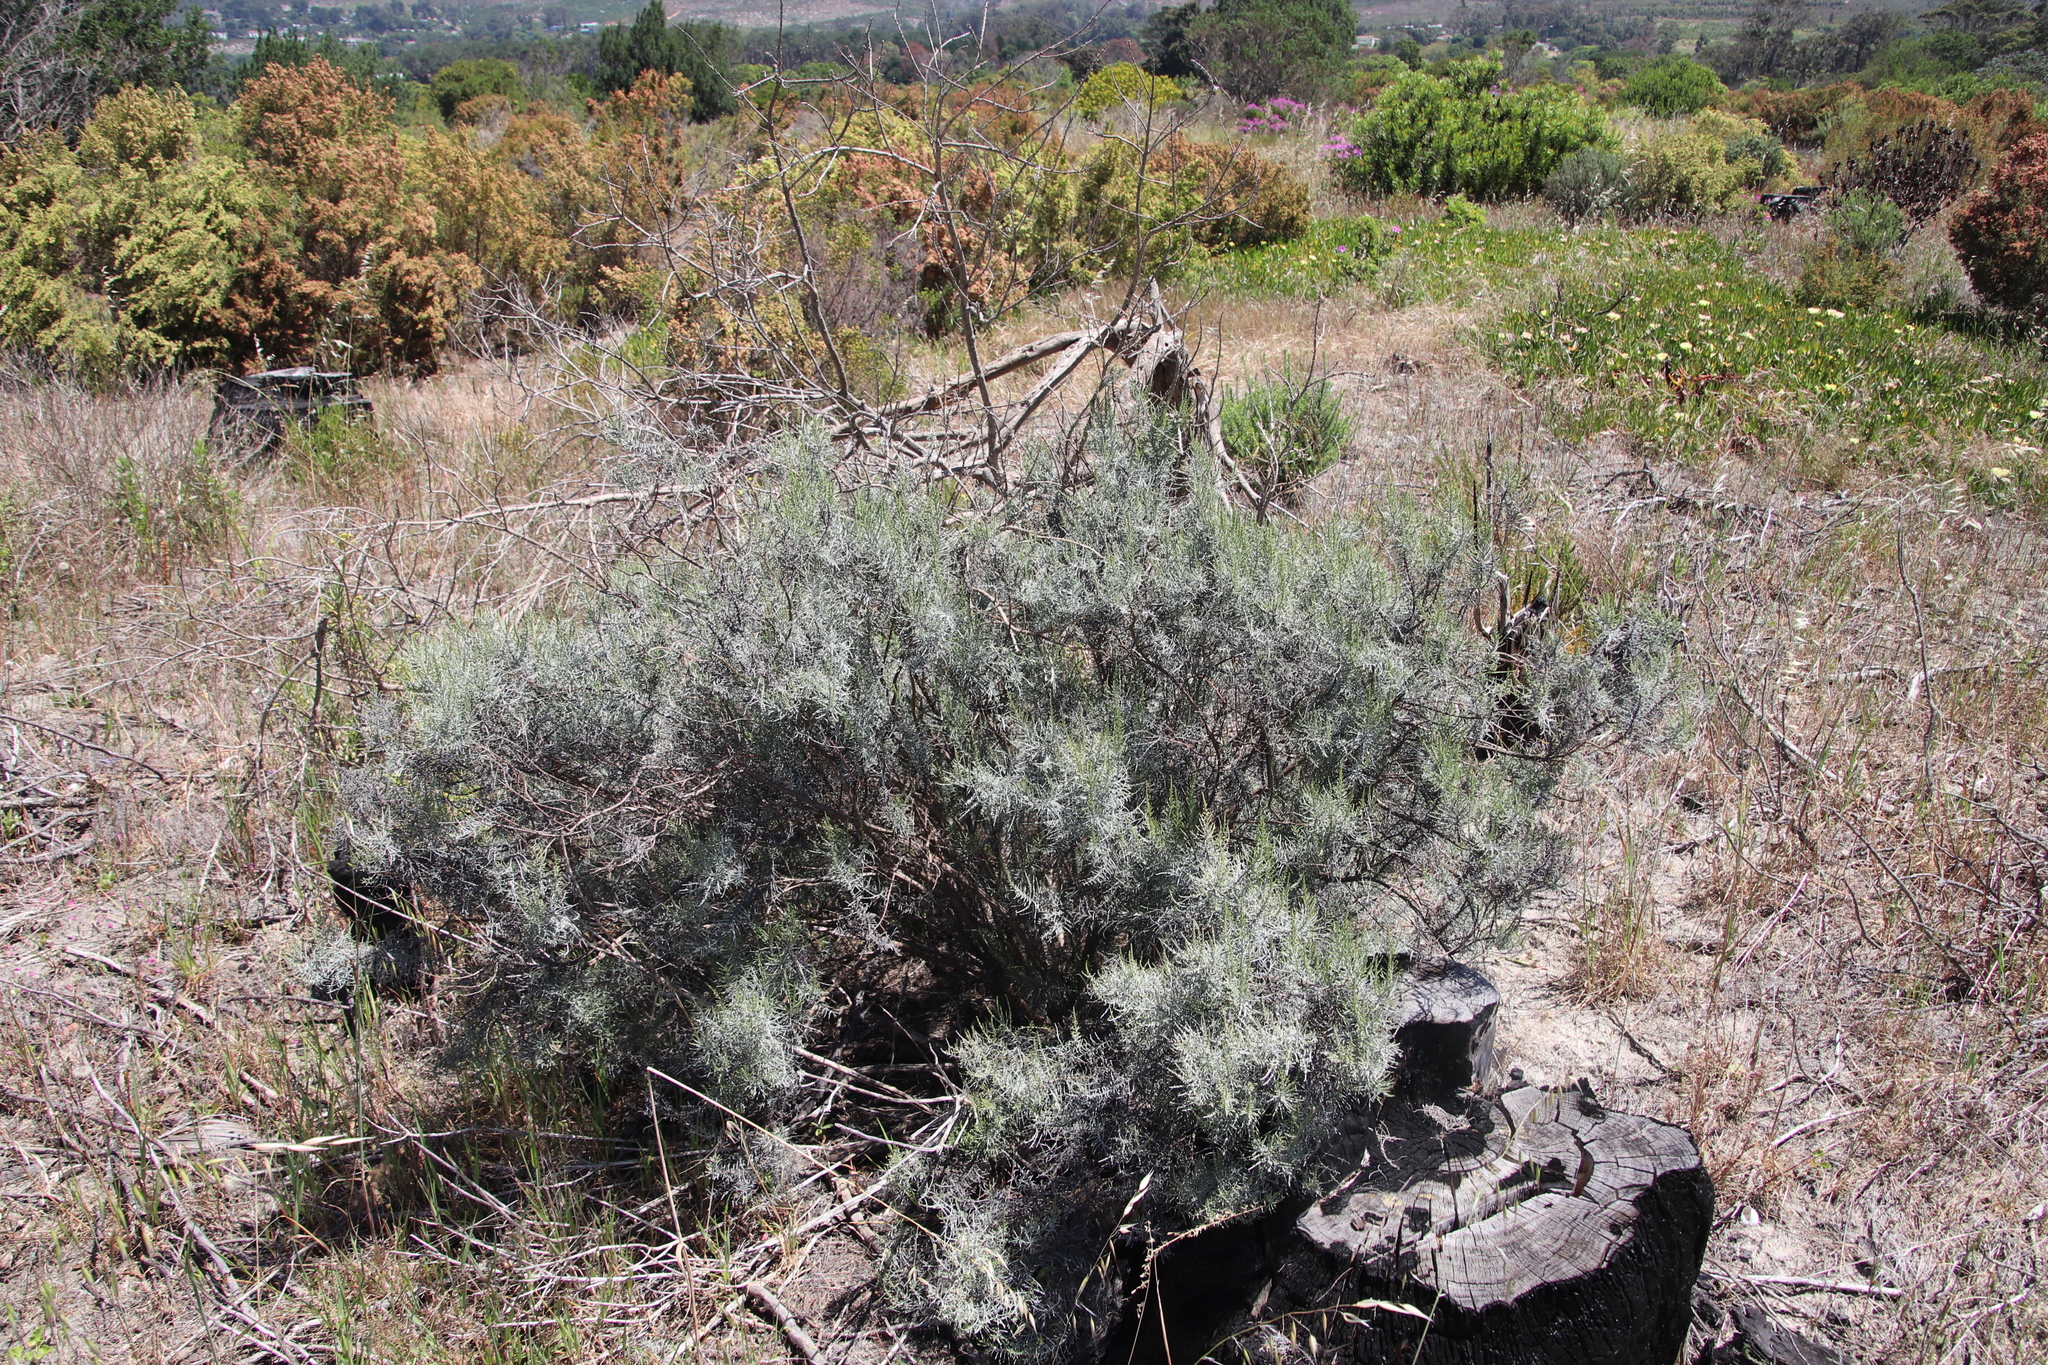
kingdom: Plantae
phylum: Tracheophyta
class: Magnoliopsida
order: Asterales
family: Asteraceae
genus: Dicerothamnus
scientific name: Dicerothamnus rhinocerotis
